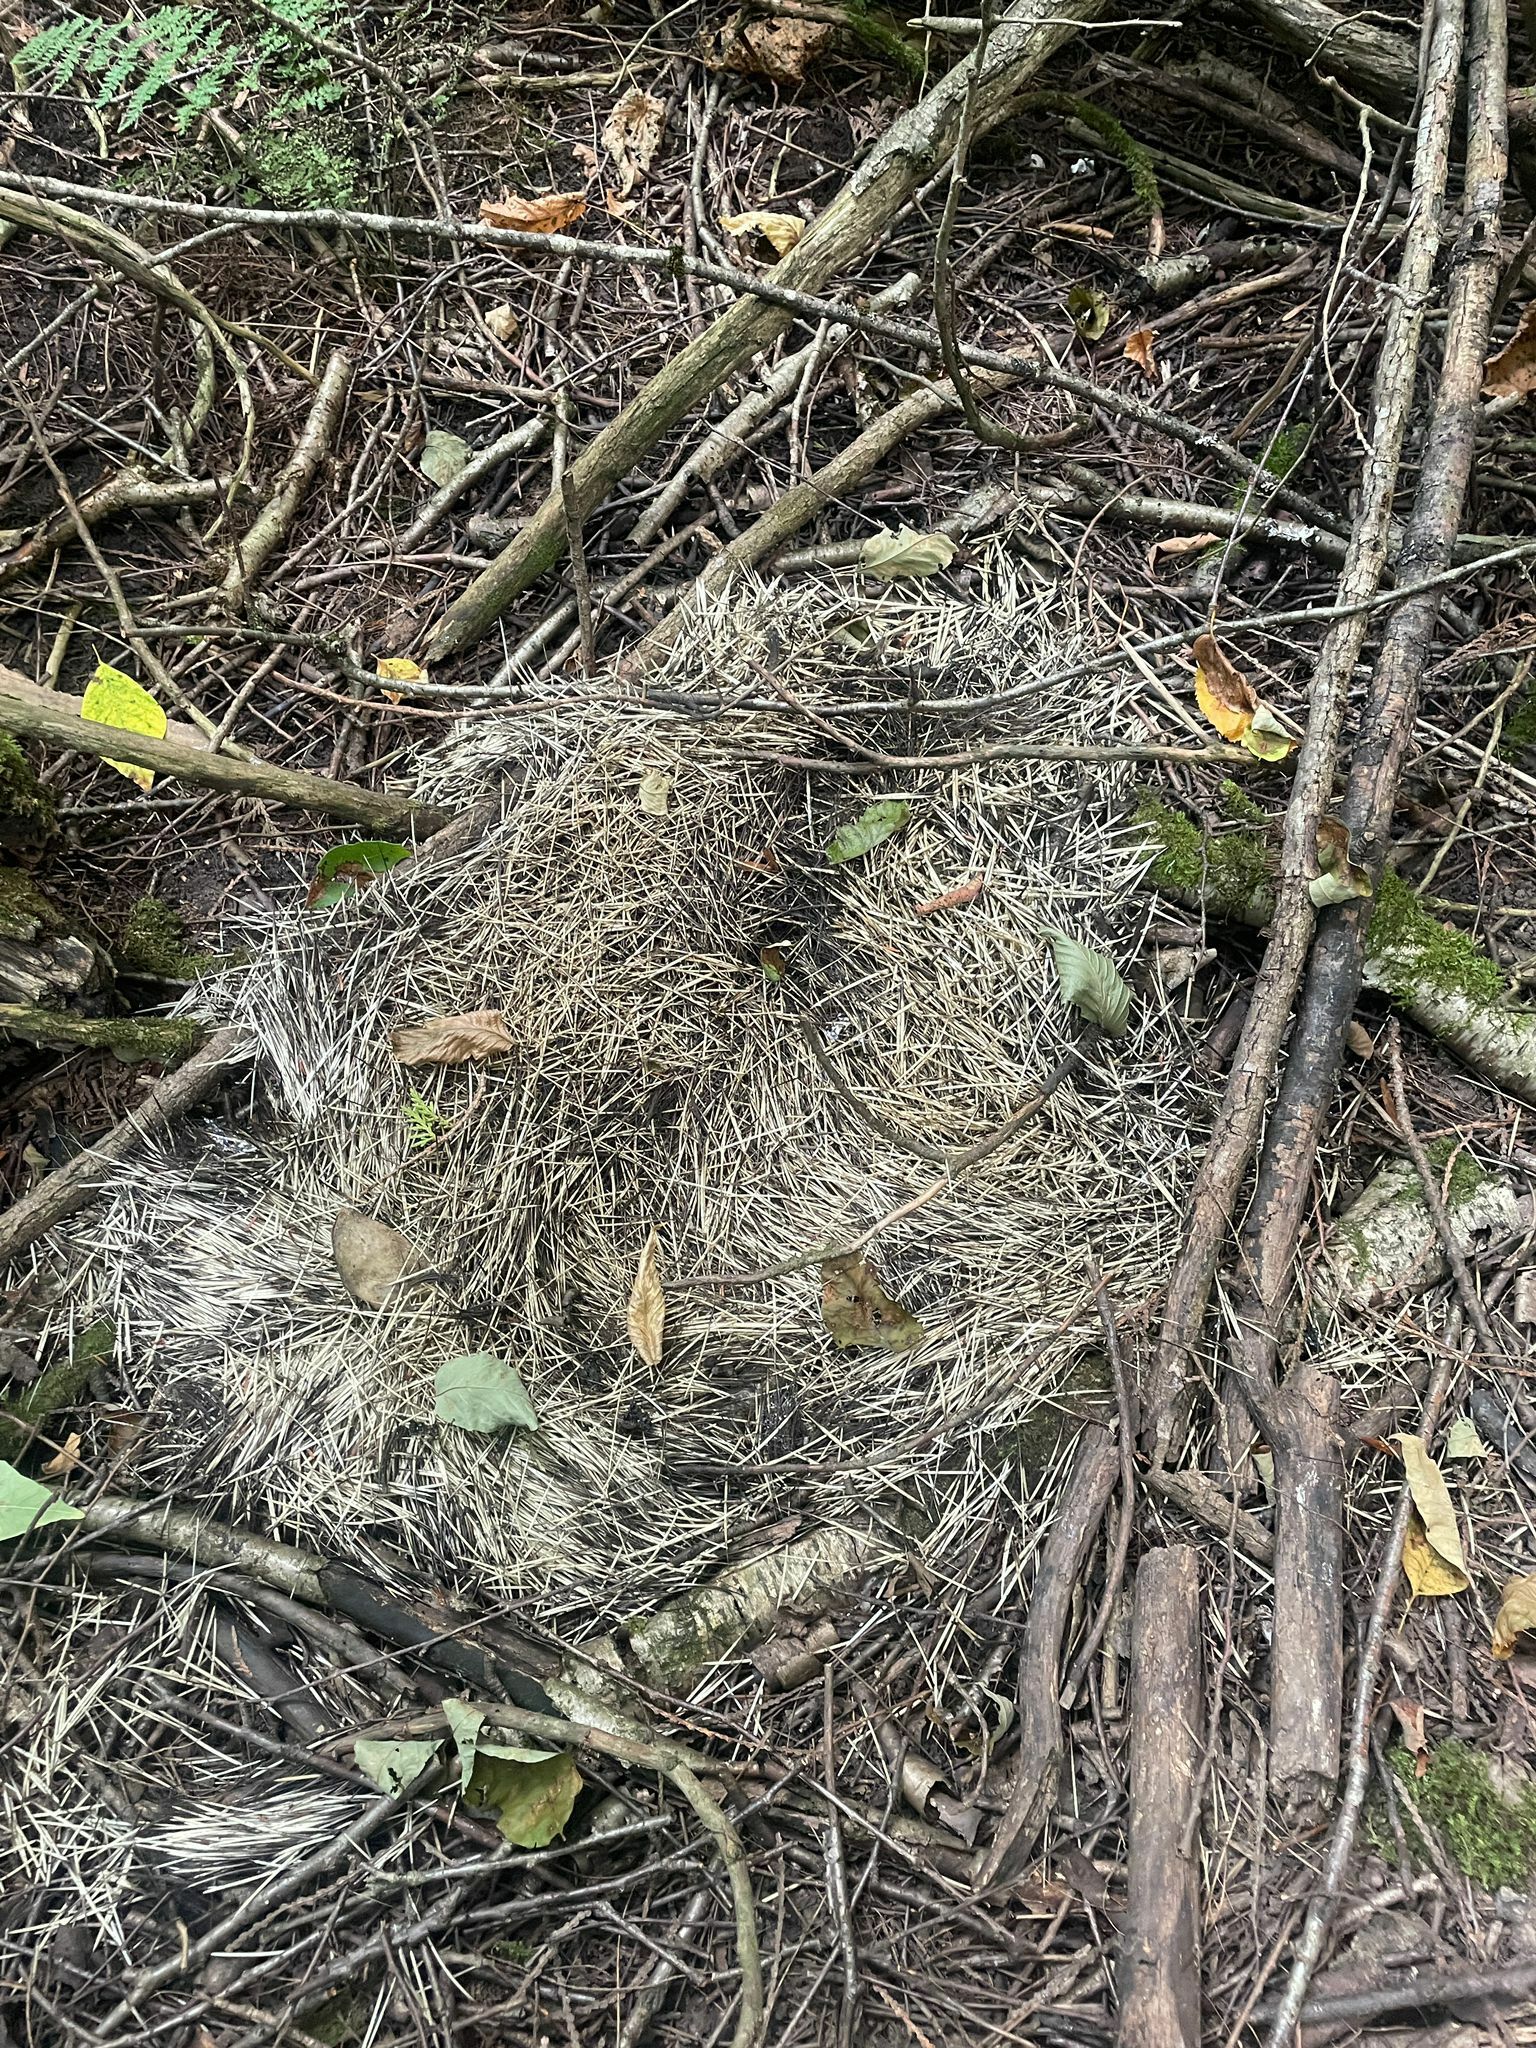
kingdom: Animalia
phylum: Chordata
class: Mammalia
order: Rodentia
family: Erethizontidae
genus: Erethizon
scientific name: Erethizon dorsatus
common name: North american porcupine
